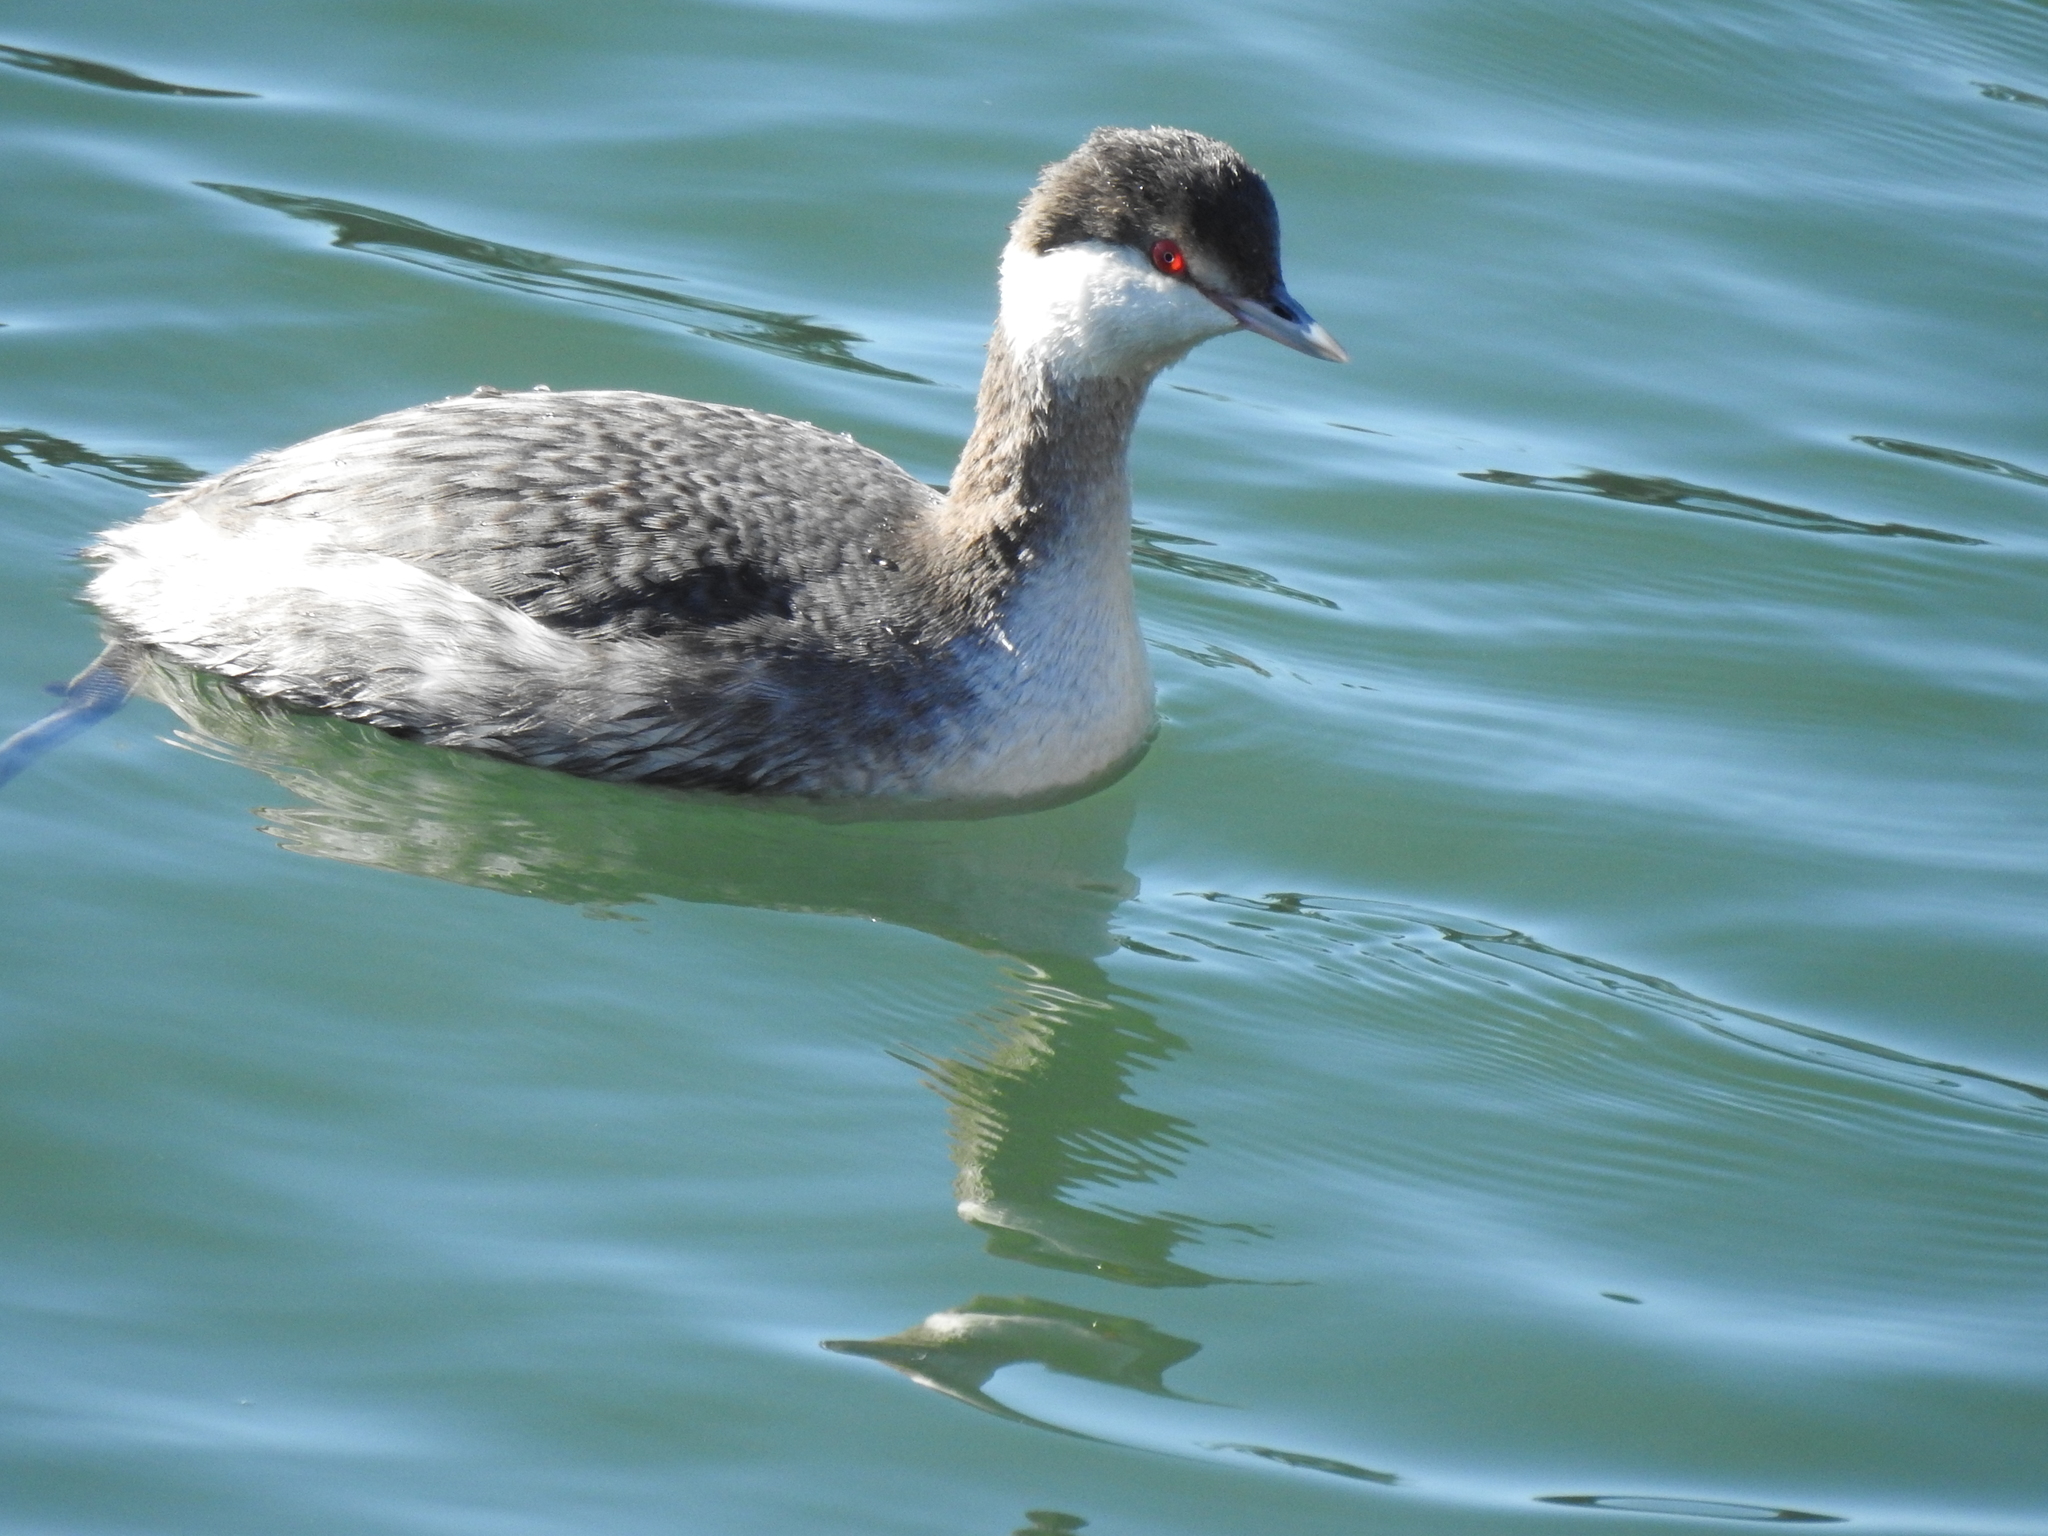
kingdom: Animalia
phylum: Chordata
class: Aves
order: Podicipediformes
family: Podicipedidae
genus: Podiceps
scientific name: Podiceps auritus
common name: Horned grebe
